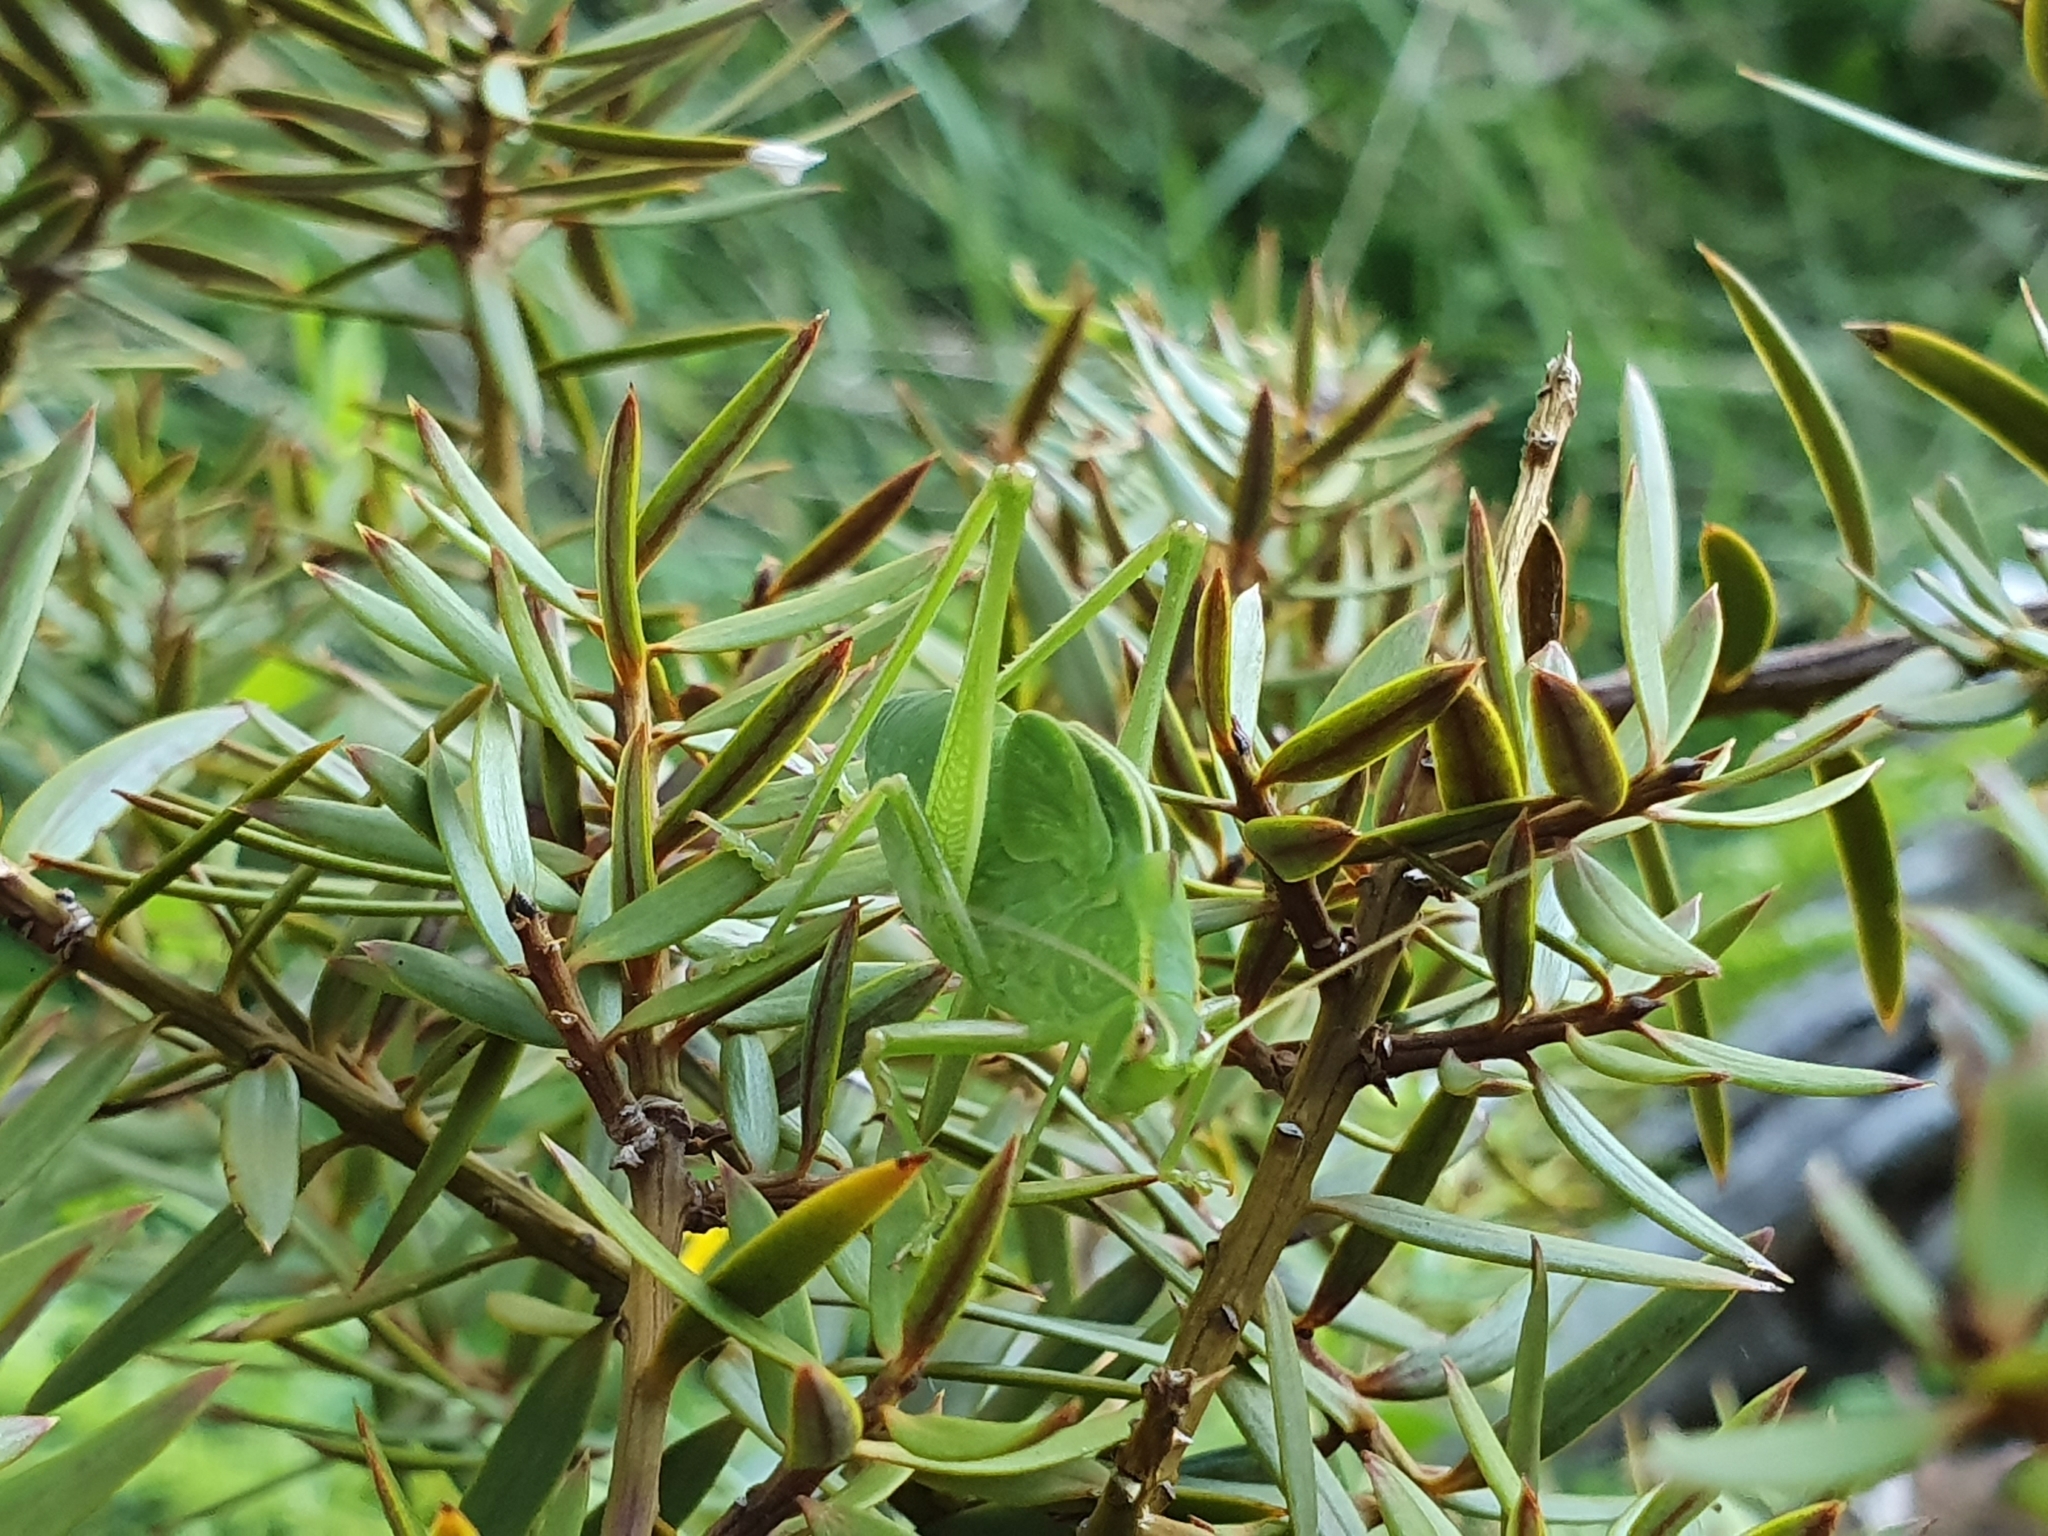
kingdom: Animalia
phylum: Arthropoda
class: Insecta
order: Orthoptera
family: Tettigoniidae
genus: Caedicia
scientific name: Caedicia simplex
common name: Common garden katydid
